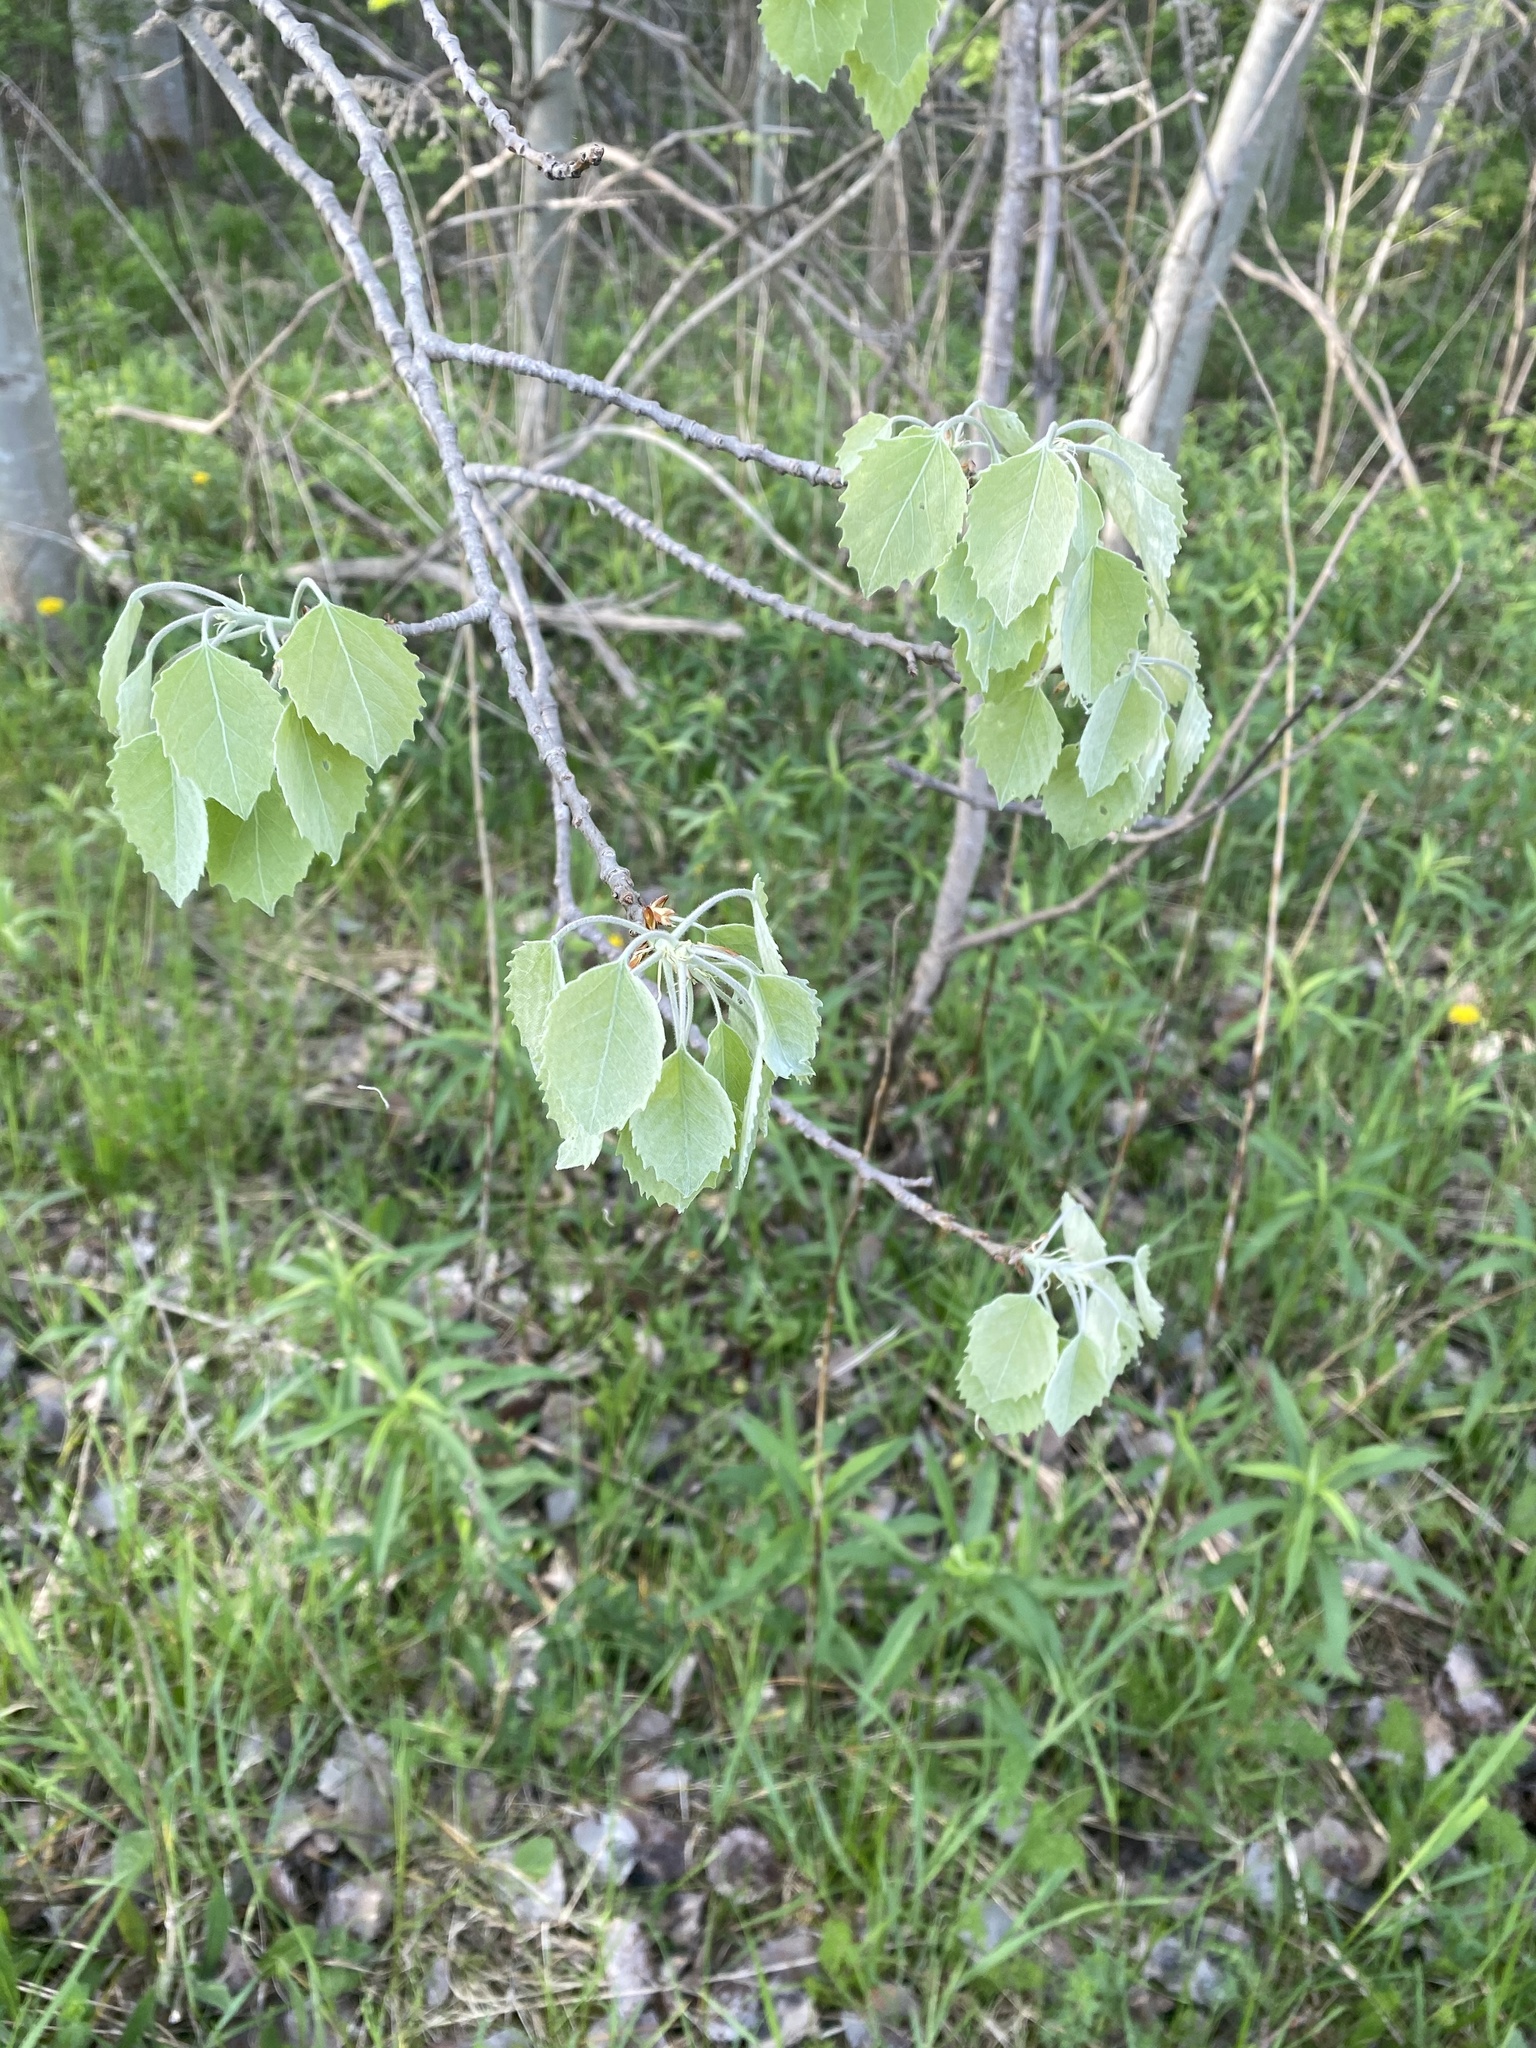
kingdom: Plantae
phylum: Tracheophyta
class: Magnoliopsida
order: Malpighiales
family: Salicaceae
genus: Populus
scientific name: Populus grandidentata
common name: Bigtooth aspen
